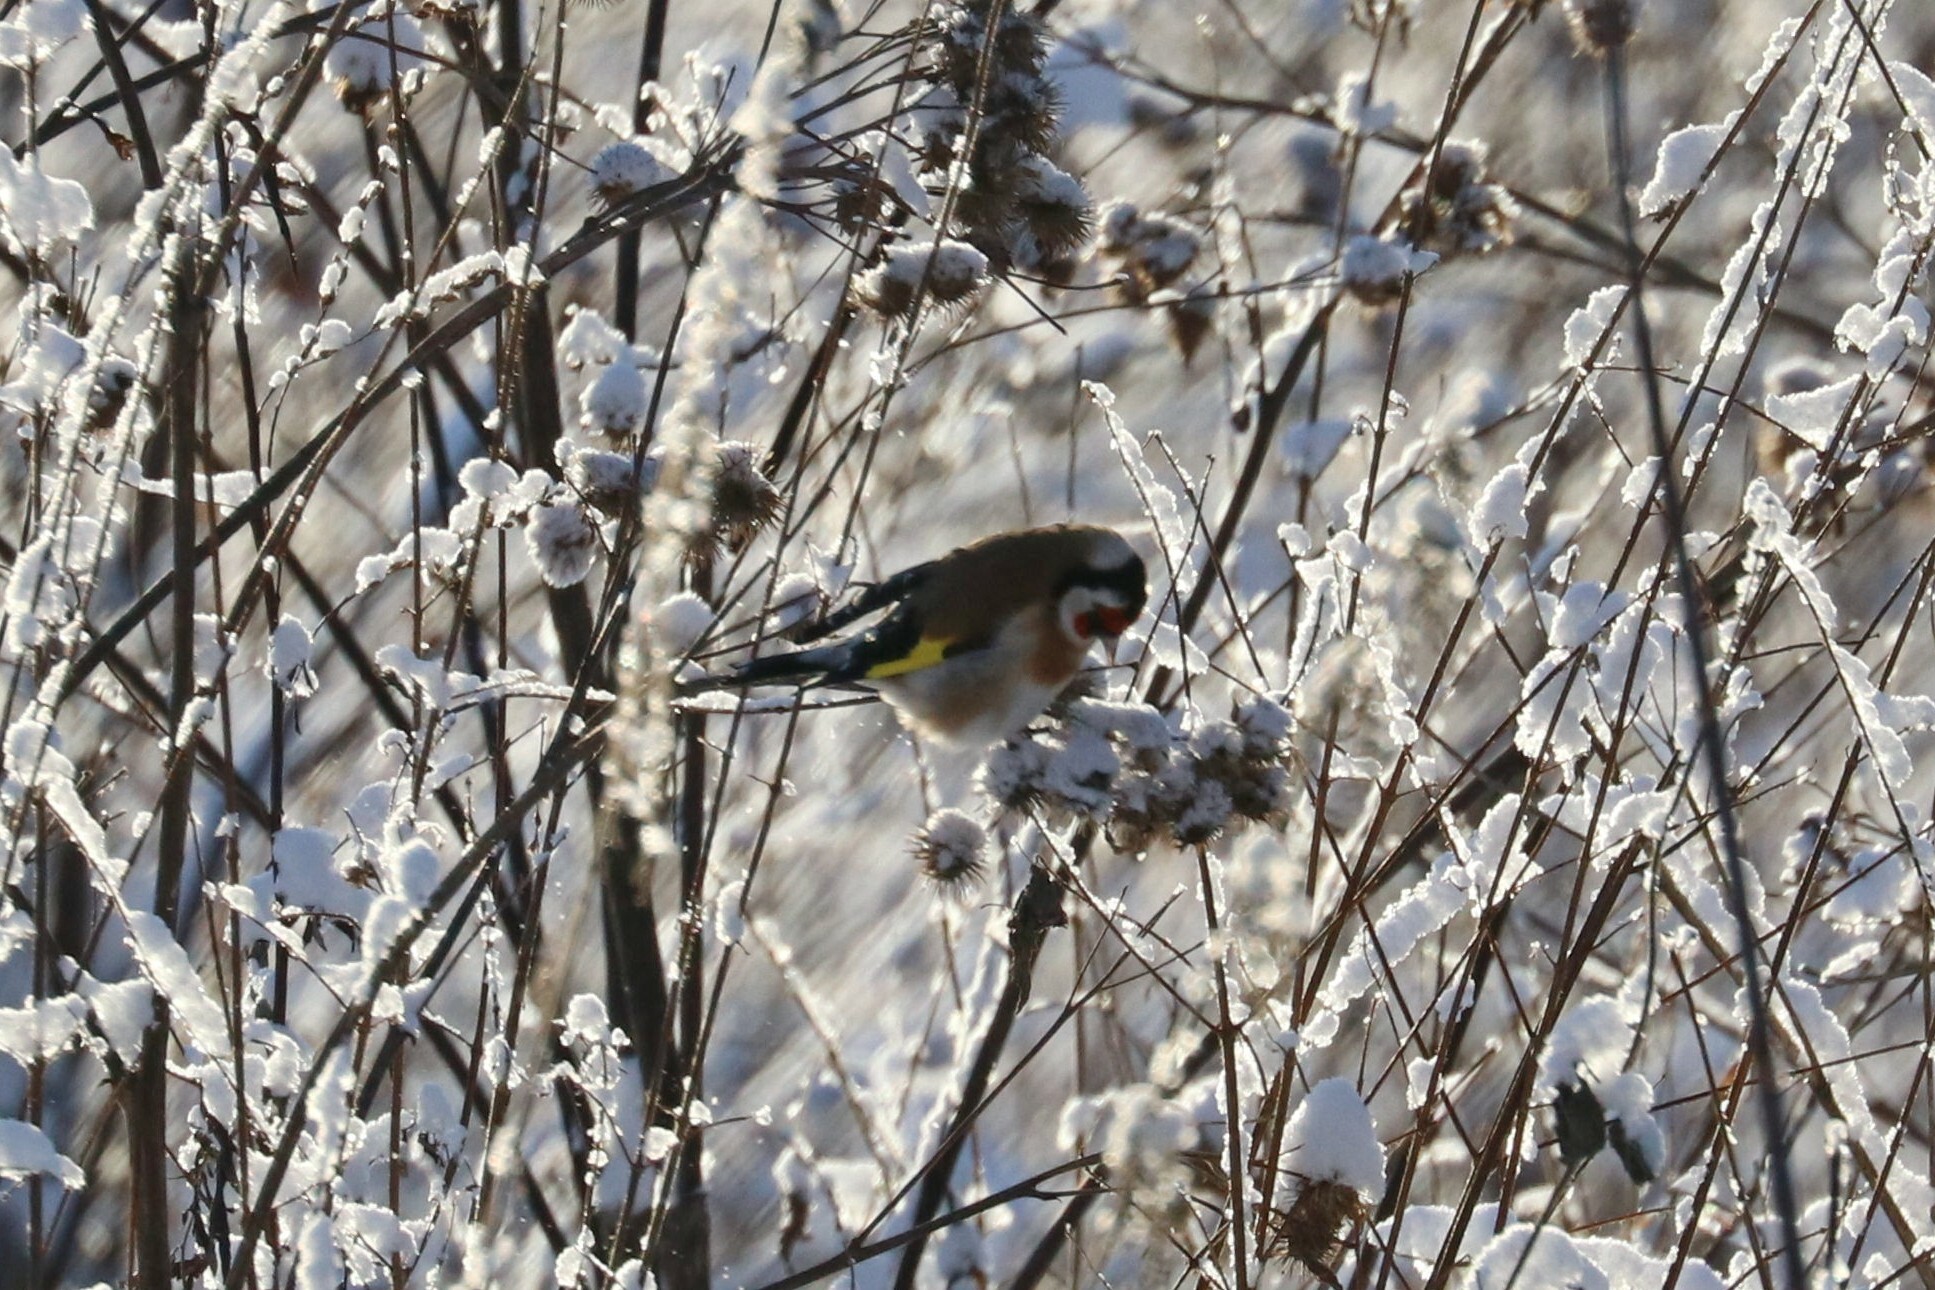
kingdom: Animalia
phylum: Chordata
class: Aves
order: Passeriformes
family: Fringillidae
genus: Carduelis
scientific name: Carduelis carduelis
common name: European goldfinch
